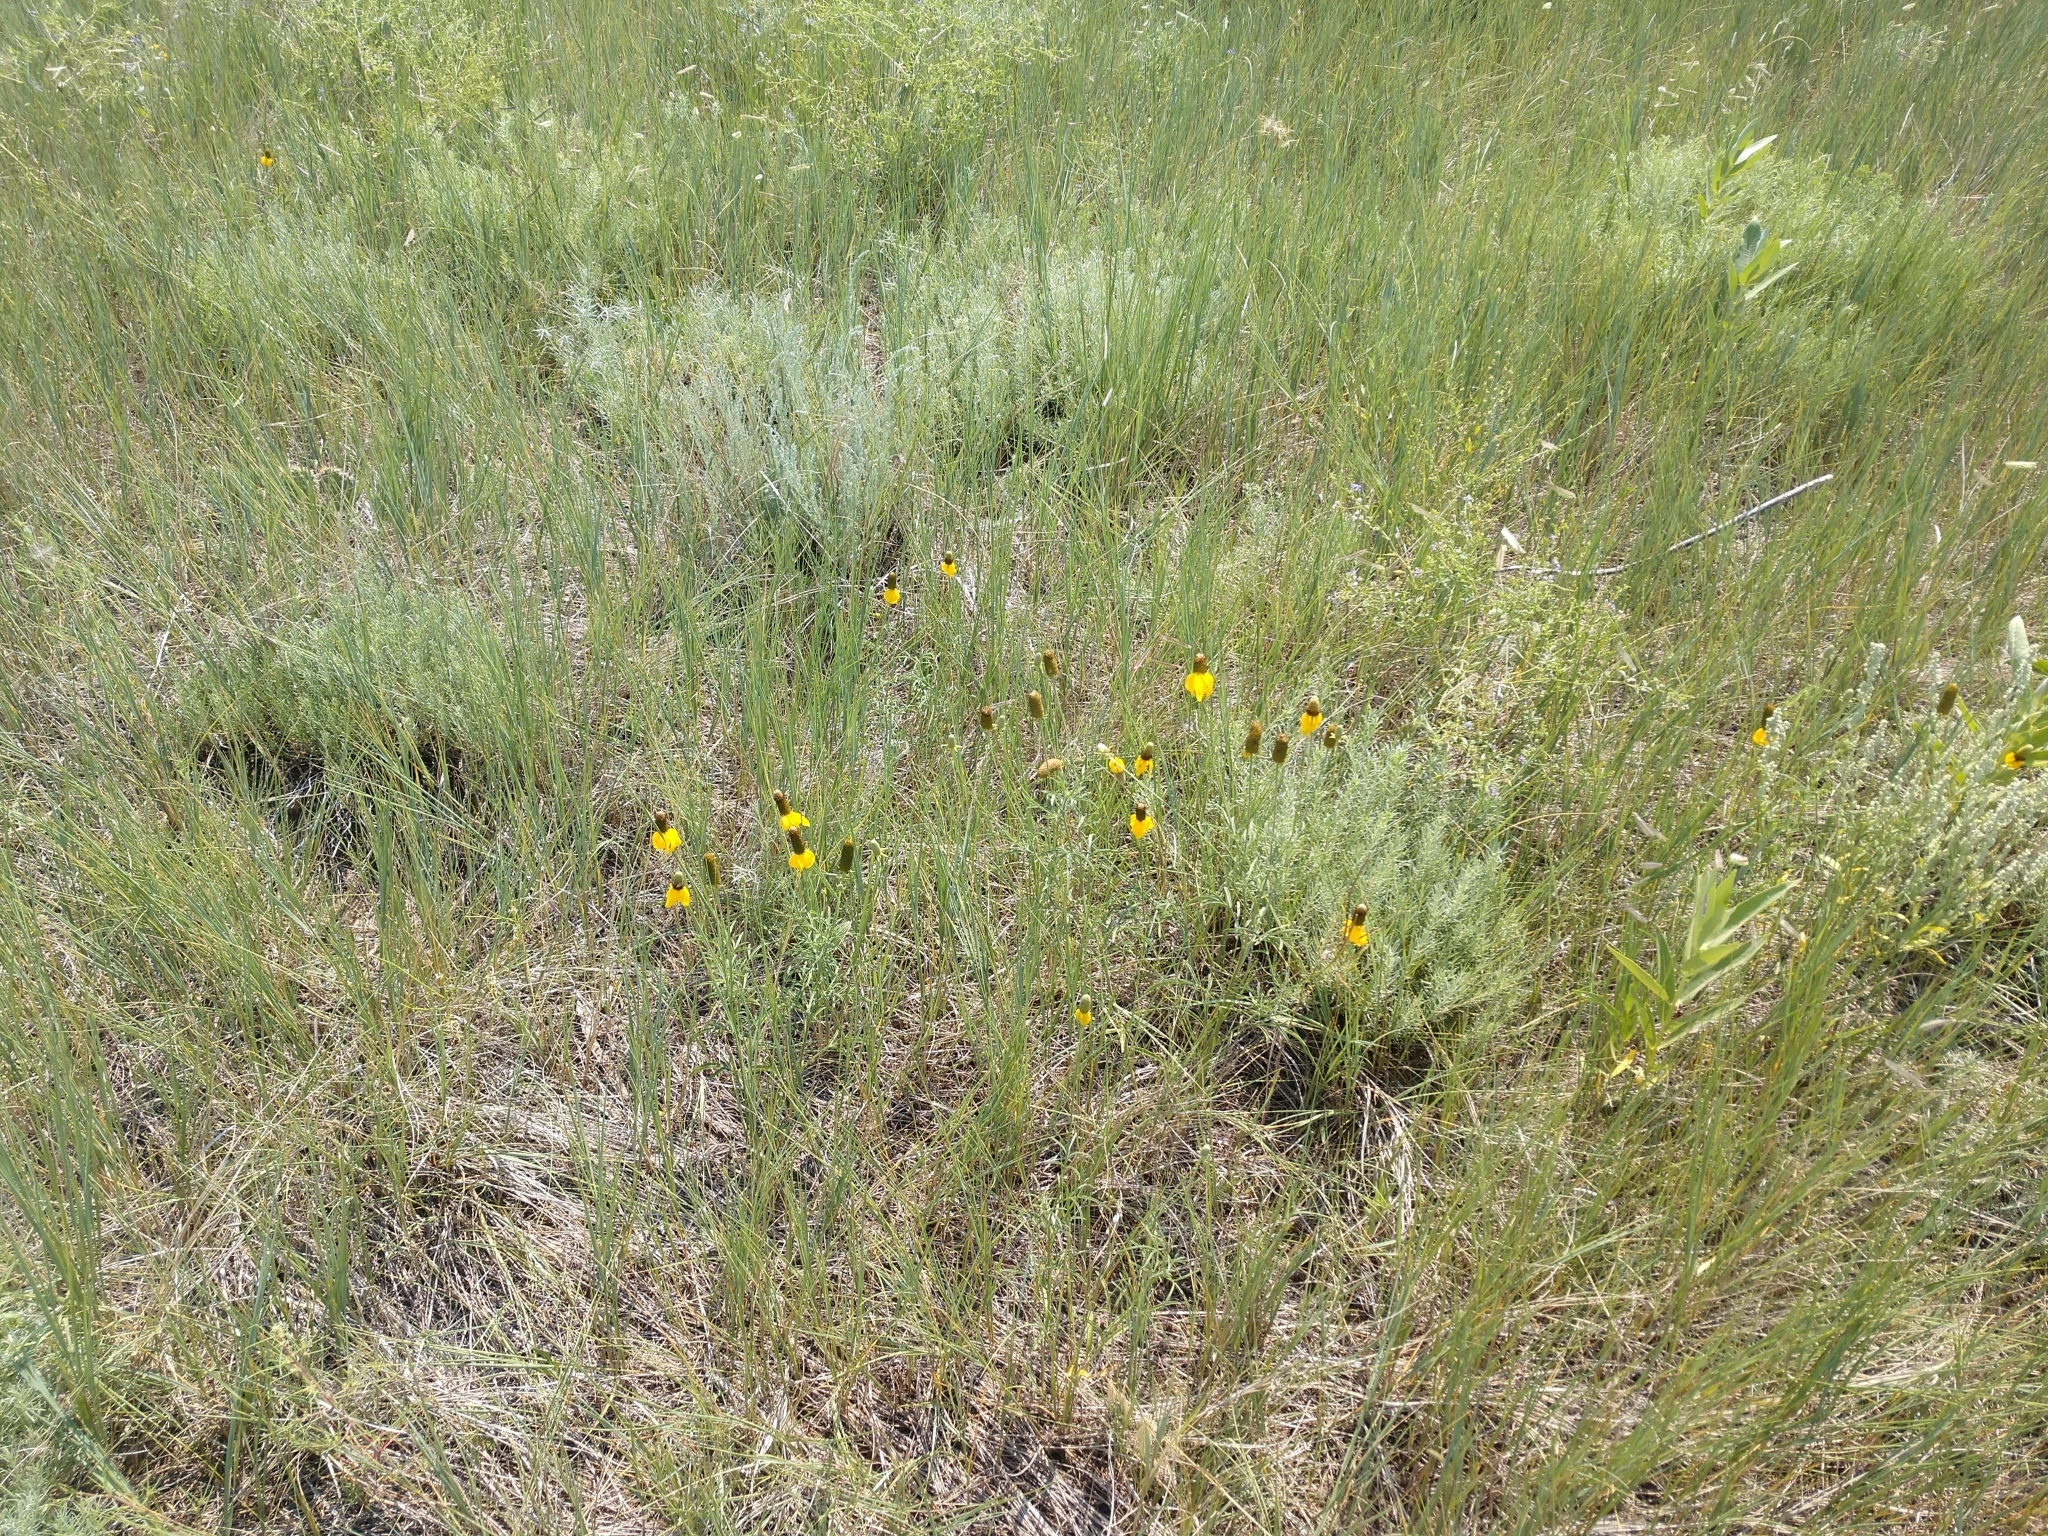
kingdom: Plantae
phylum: Tracheophyta
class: Magnoliopsida
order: Asterales
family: Asteraceae
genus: Ratibida
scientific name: Ratibida columnifera
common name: Prairie coneflower
